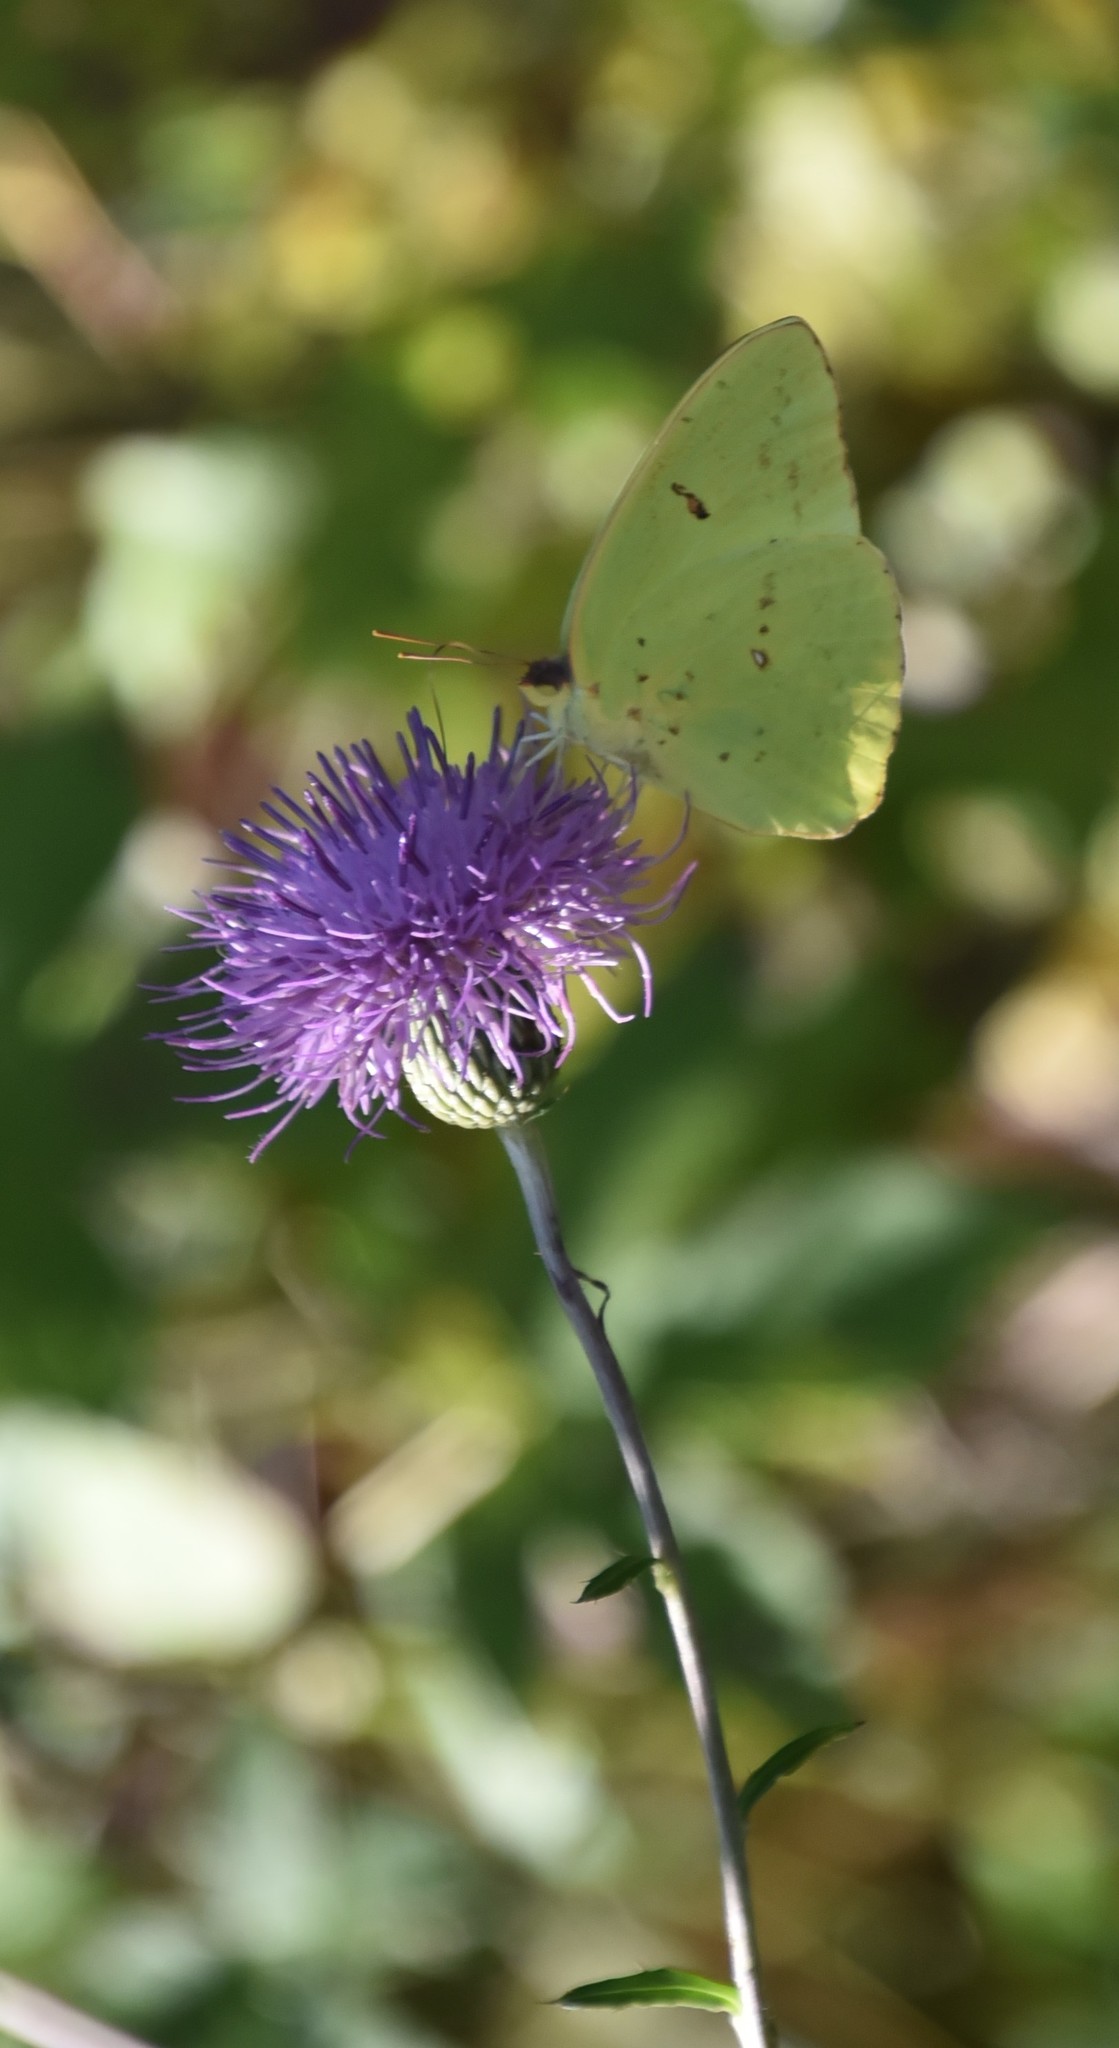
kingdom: Animalia
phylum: Arthropoda
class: Insecta
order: Lepidoptera
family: Pieridae
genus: Phoebis
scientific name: Phoebis sennae
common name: Cloudless sulphur
